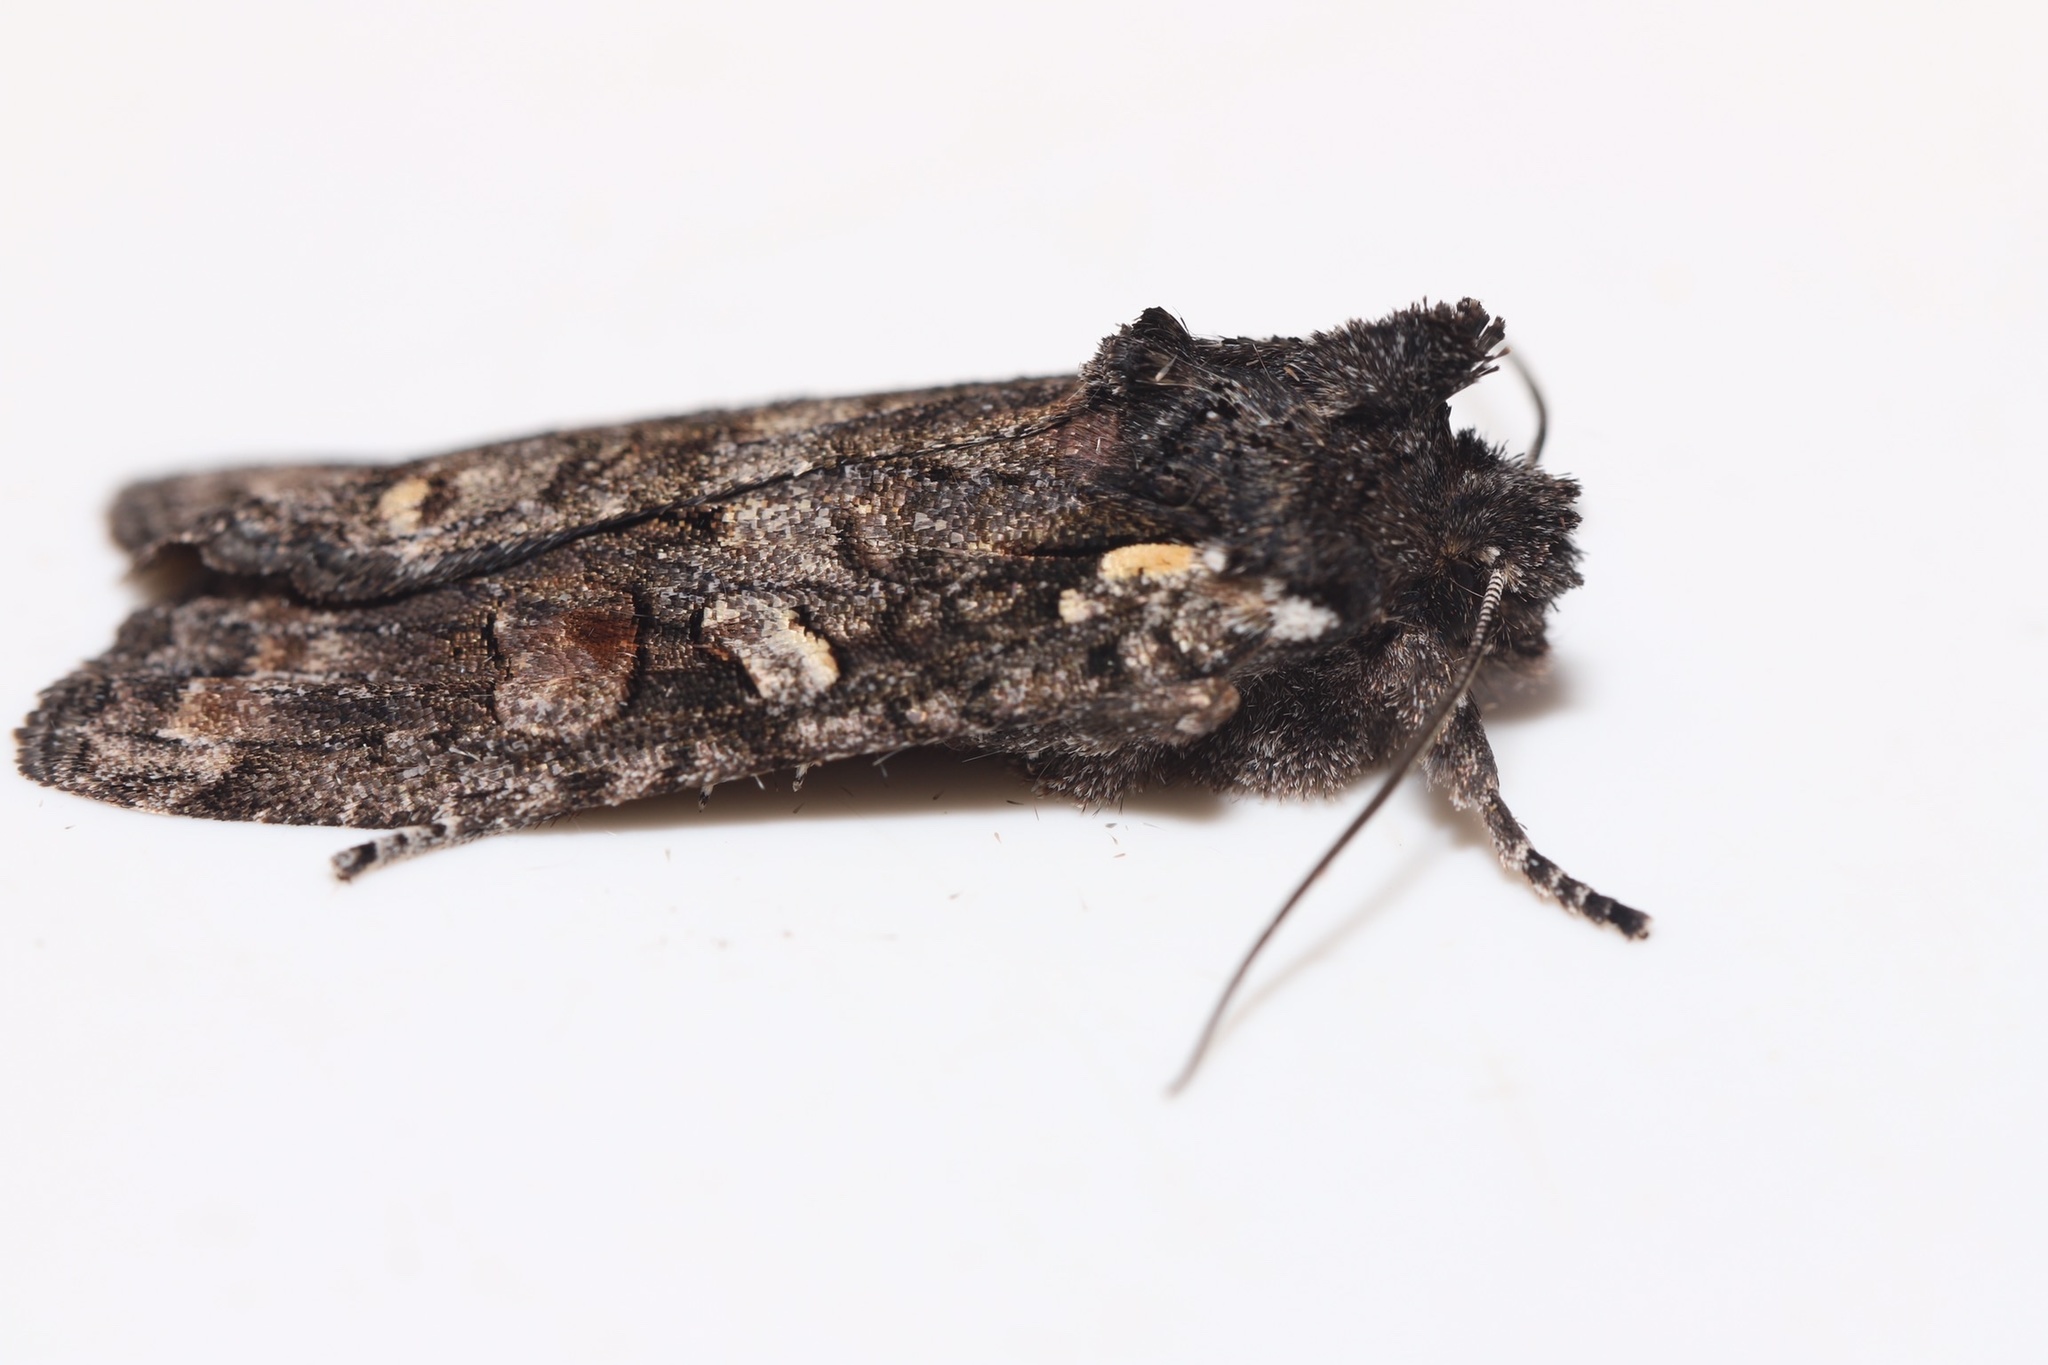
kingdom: Animalia
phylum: Arthropoda
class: Insecta
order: Lepidoptera
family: Noctuidae
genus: Lithophane
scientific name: Lithophane pexata
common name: Plush-naped pinion moth
